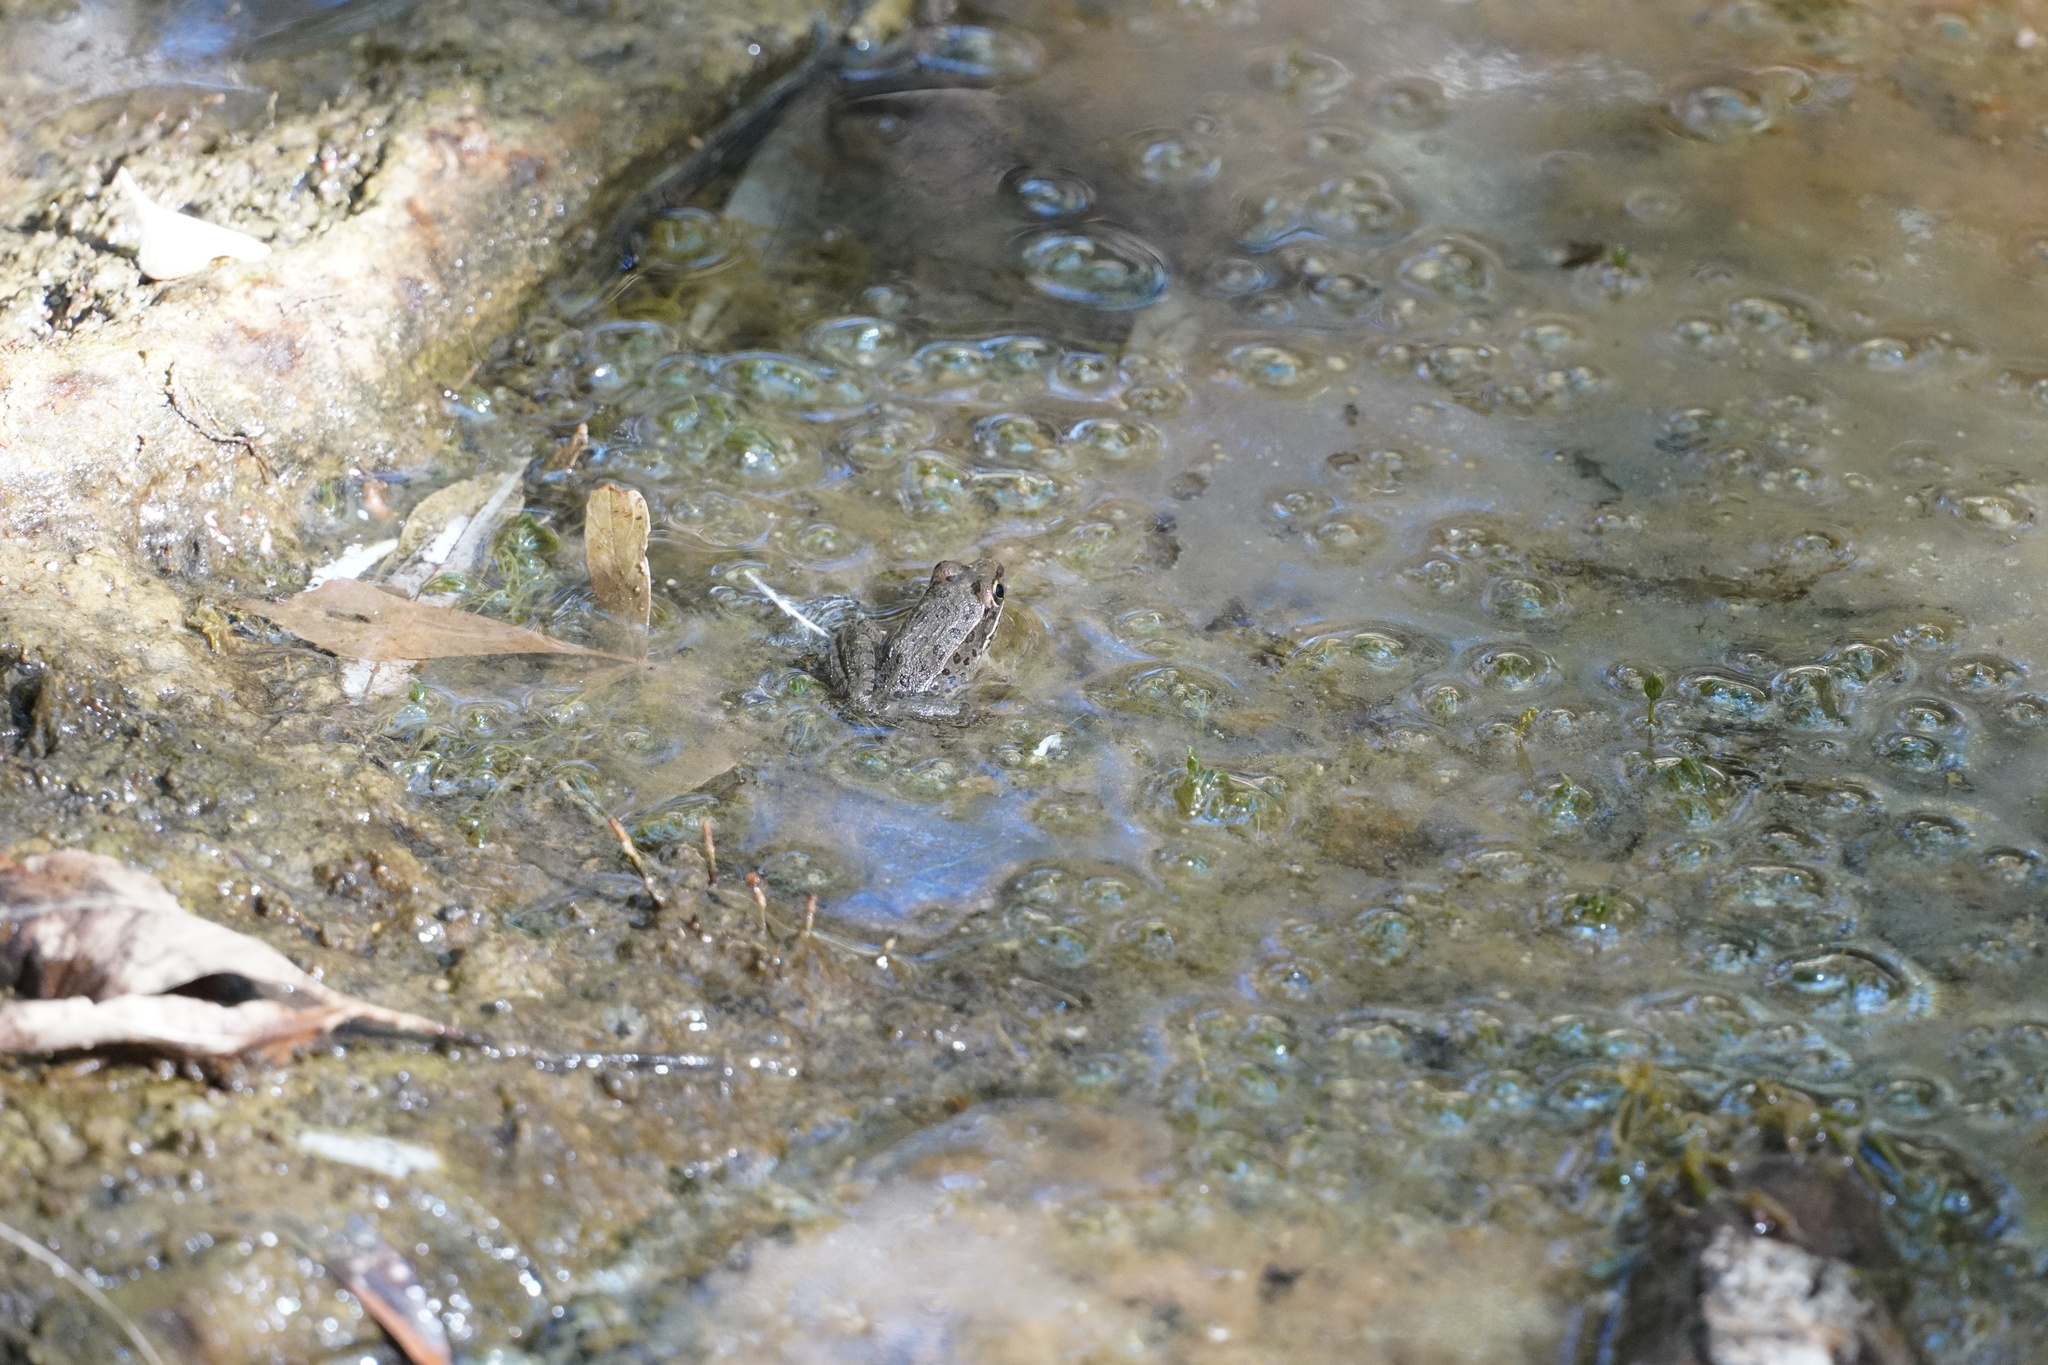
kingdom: Animalia
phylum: Chordata
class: Amphibia
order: Anura
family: Ranidae
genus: Lithobates
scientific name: Lithobates yavapaiensis
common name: Lowland leopard frog
